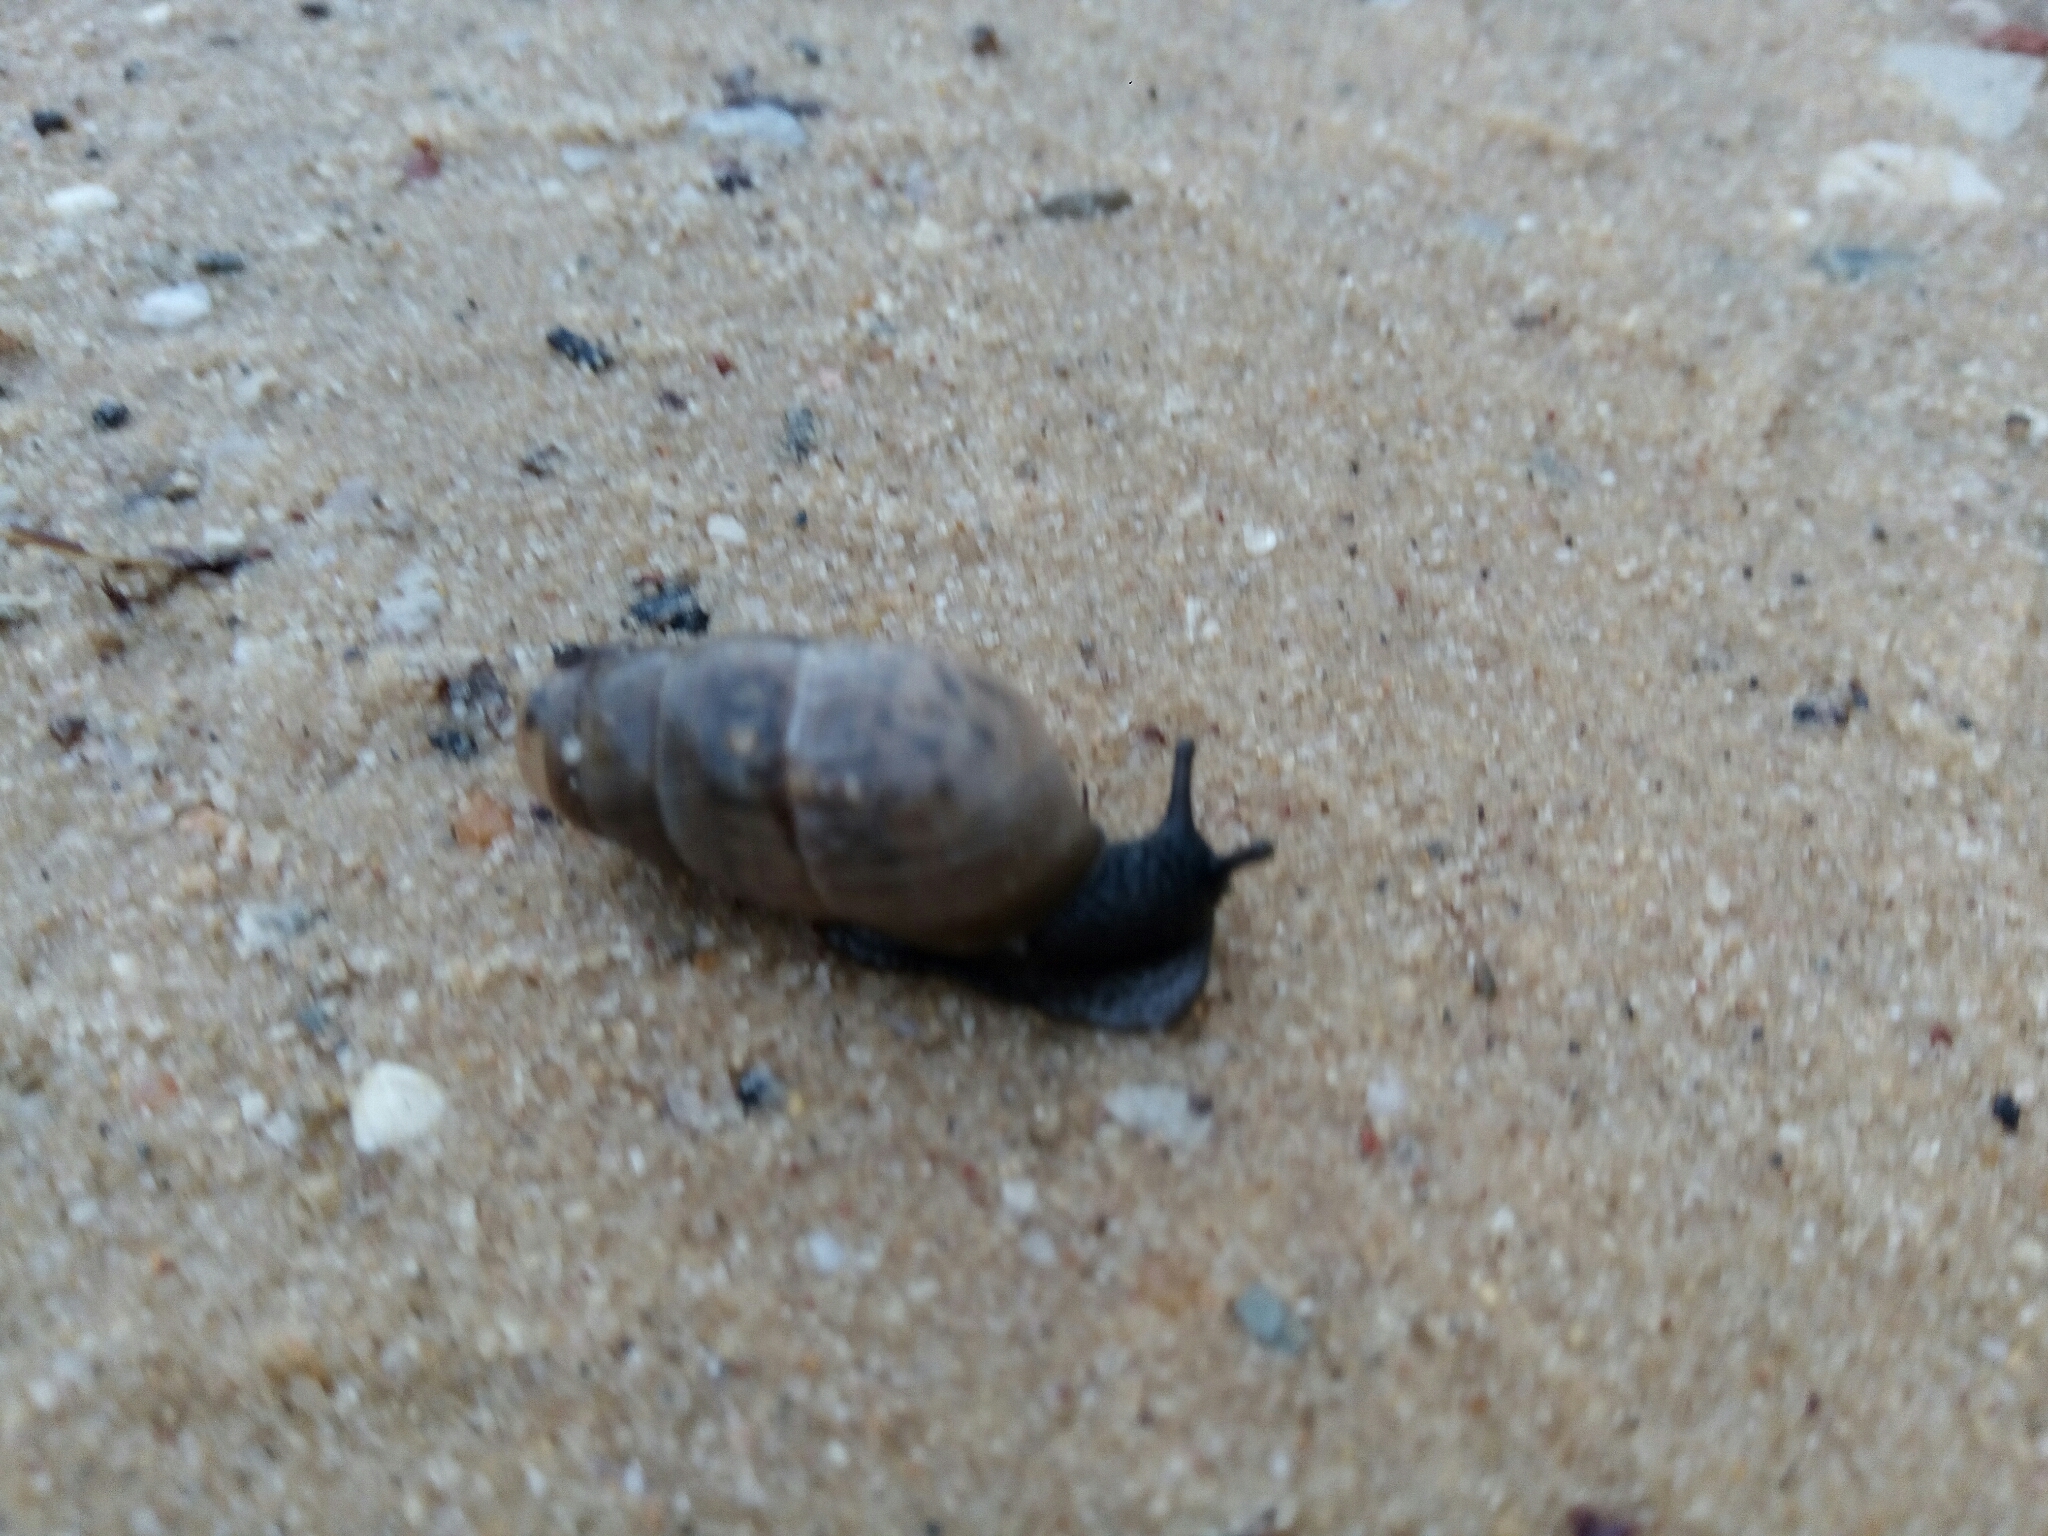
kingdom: Animalia
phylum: Mollusca
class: Gastropoda
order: Stylommatophora
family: Achatinidae
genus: Rumina
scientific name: Rumina decollata
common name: Decollate snail
